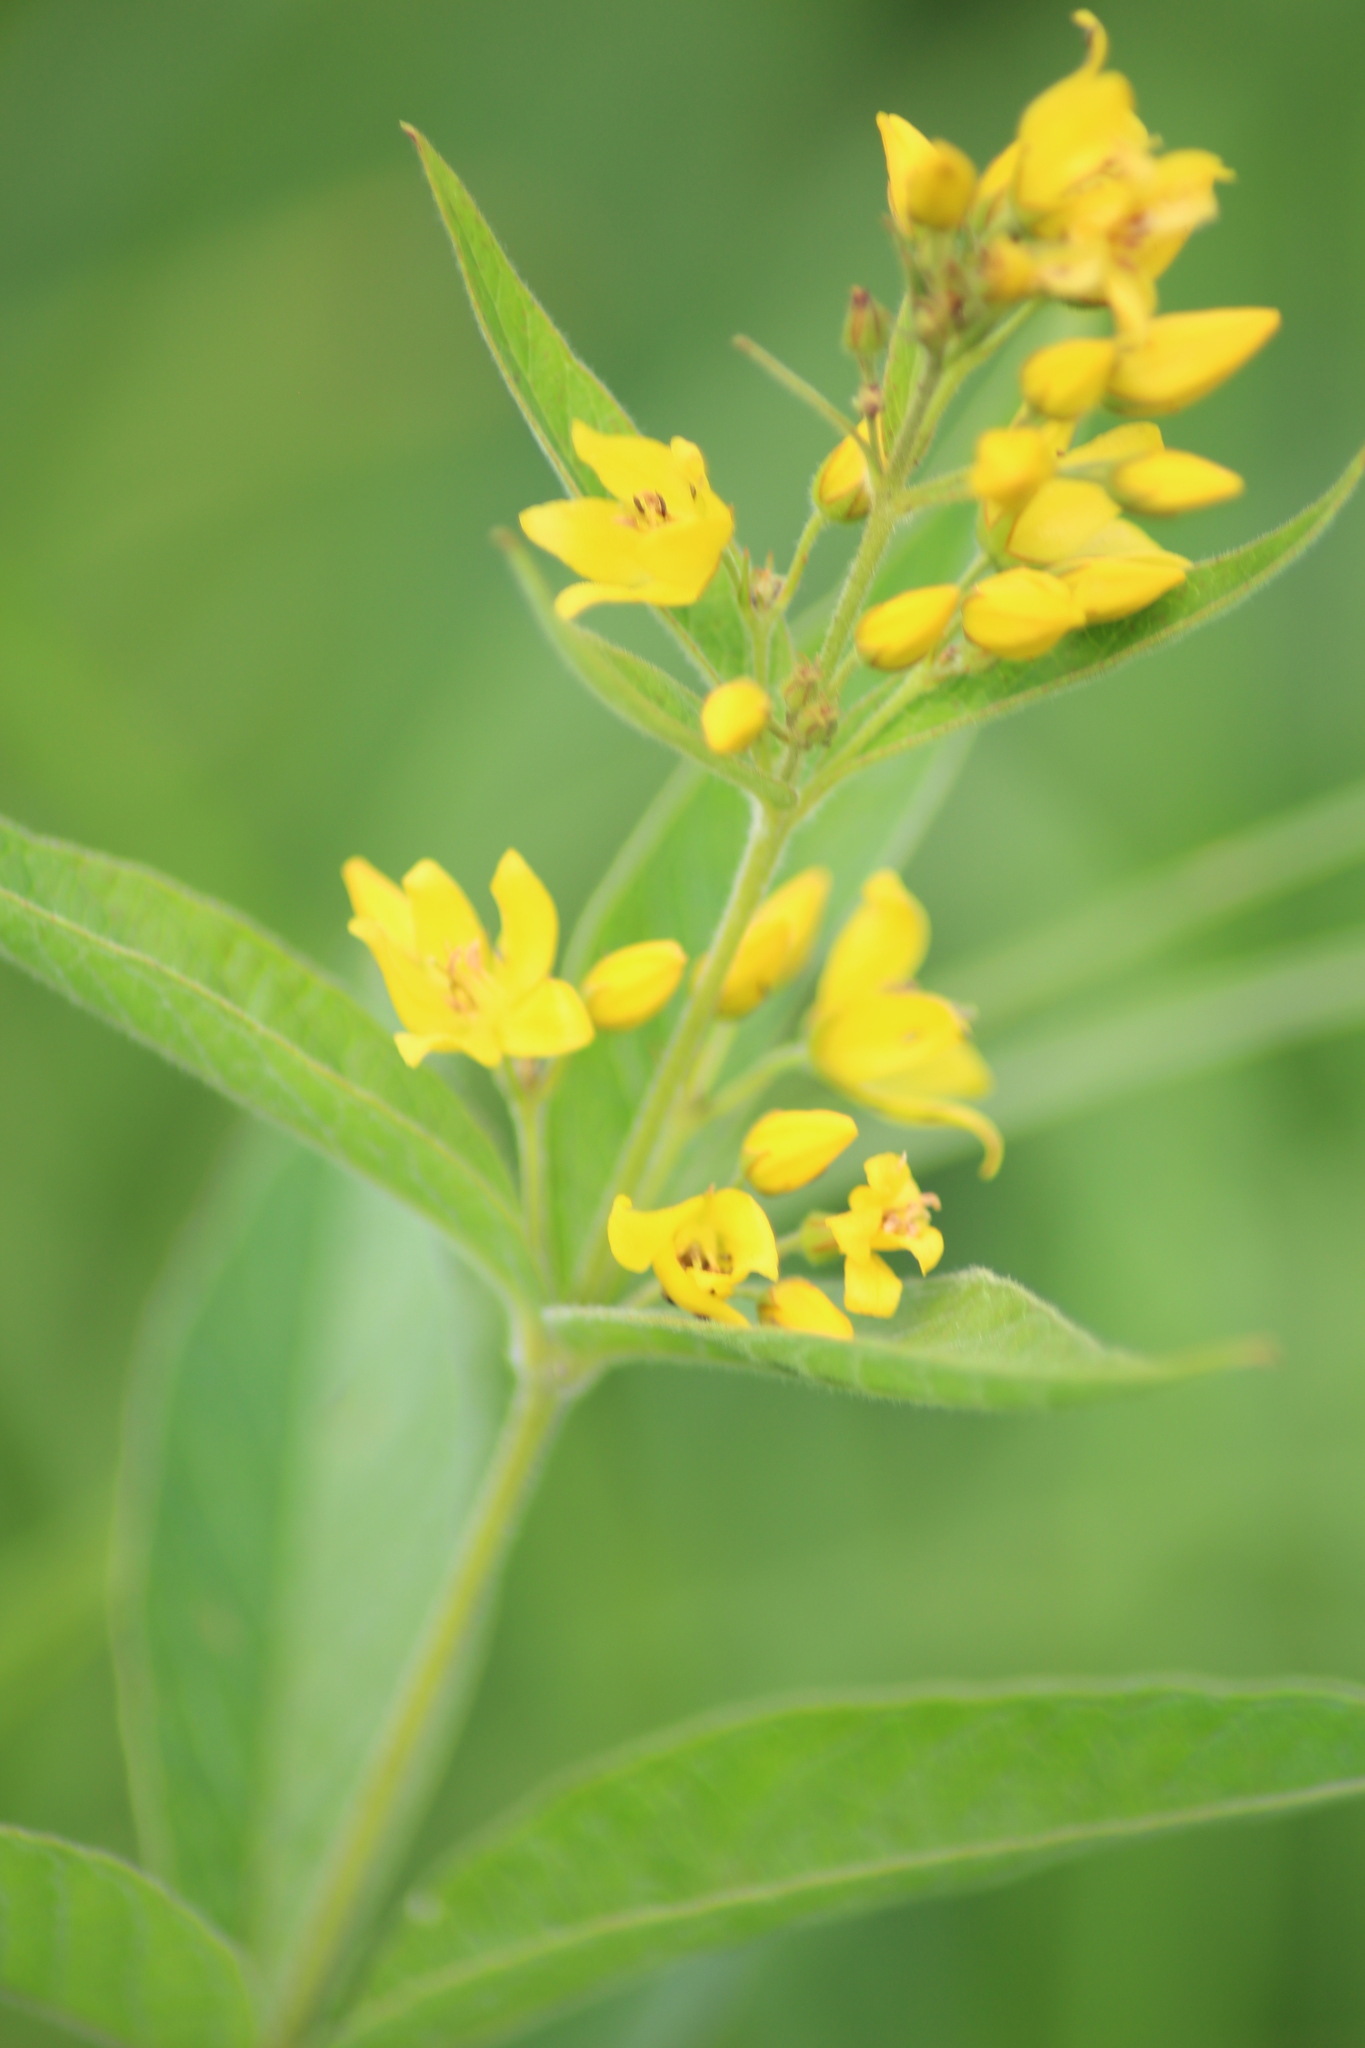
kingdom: Plantae
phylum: Tracheophyta
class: Magnoliopsida
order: Ericales
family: Primulaceae
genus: Lysimachia
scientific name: Lysimachia vulgaris
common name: Yellow loosestrife
